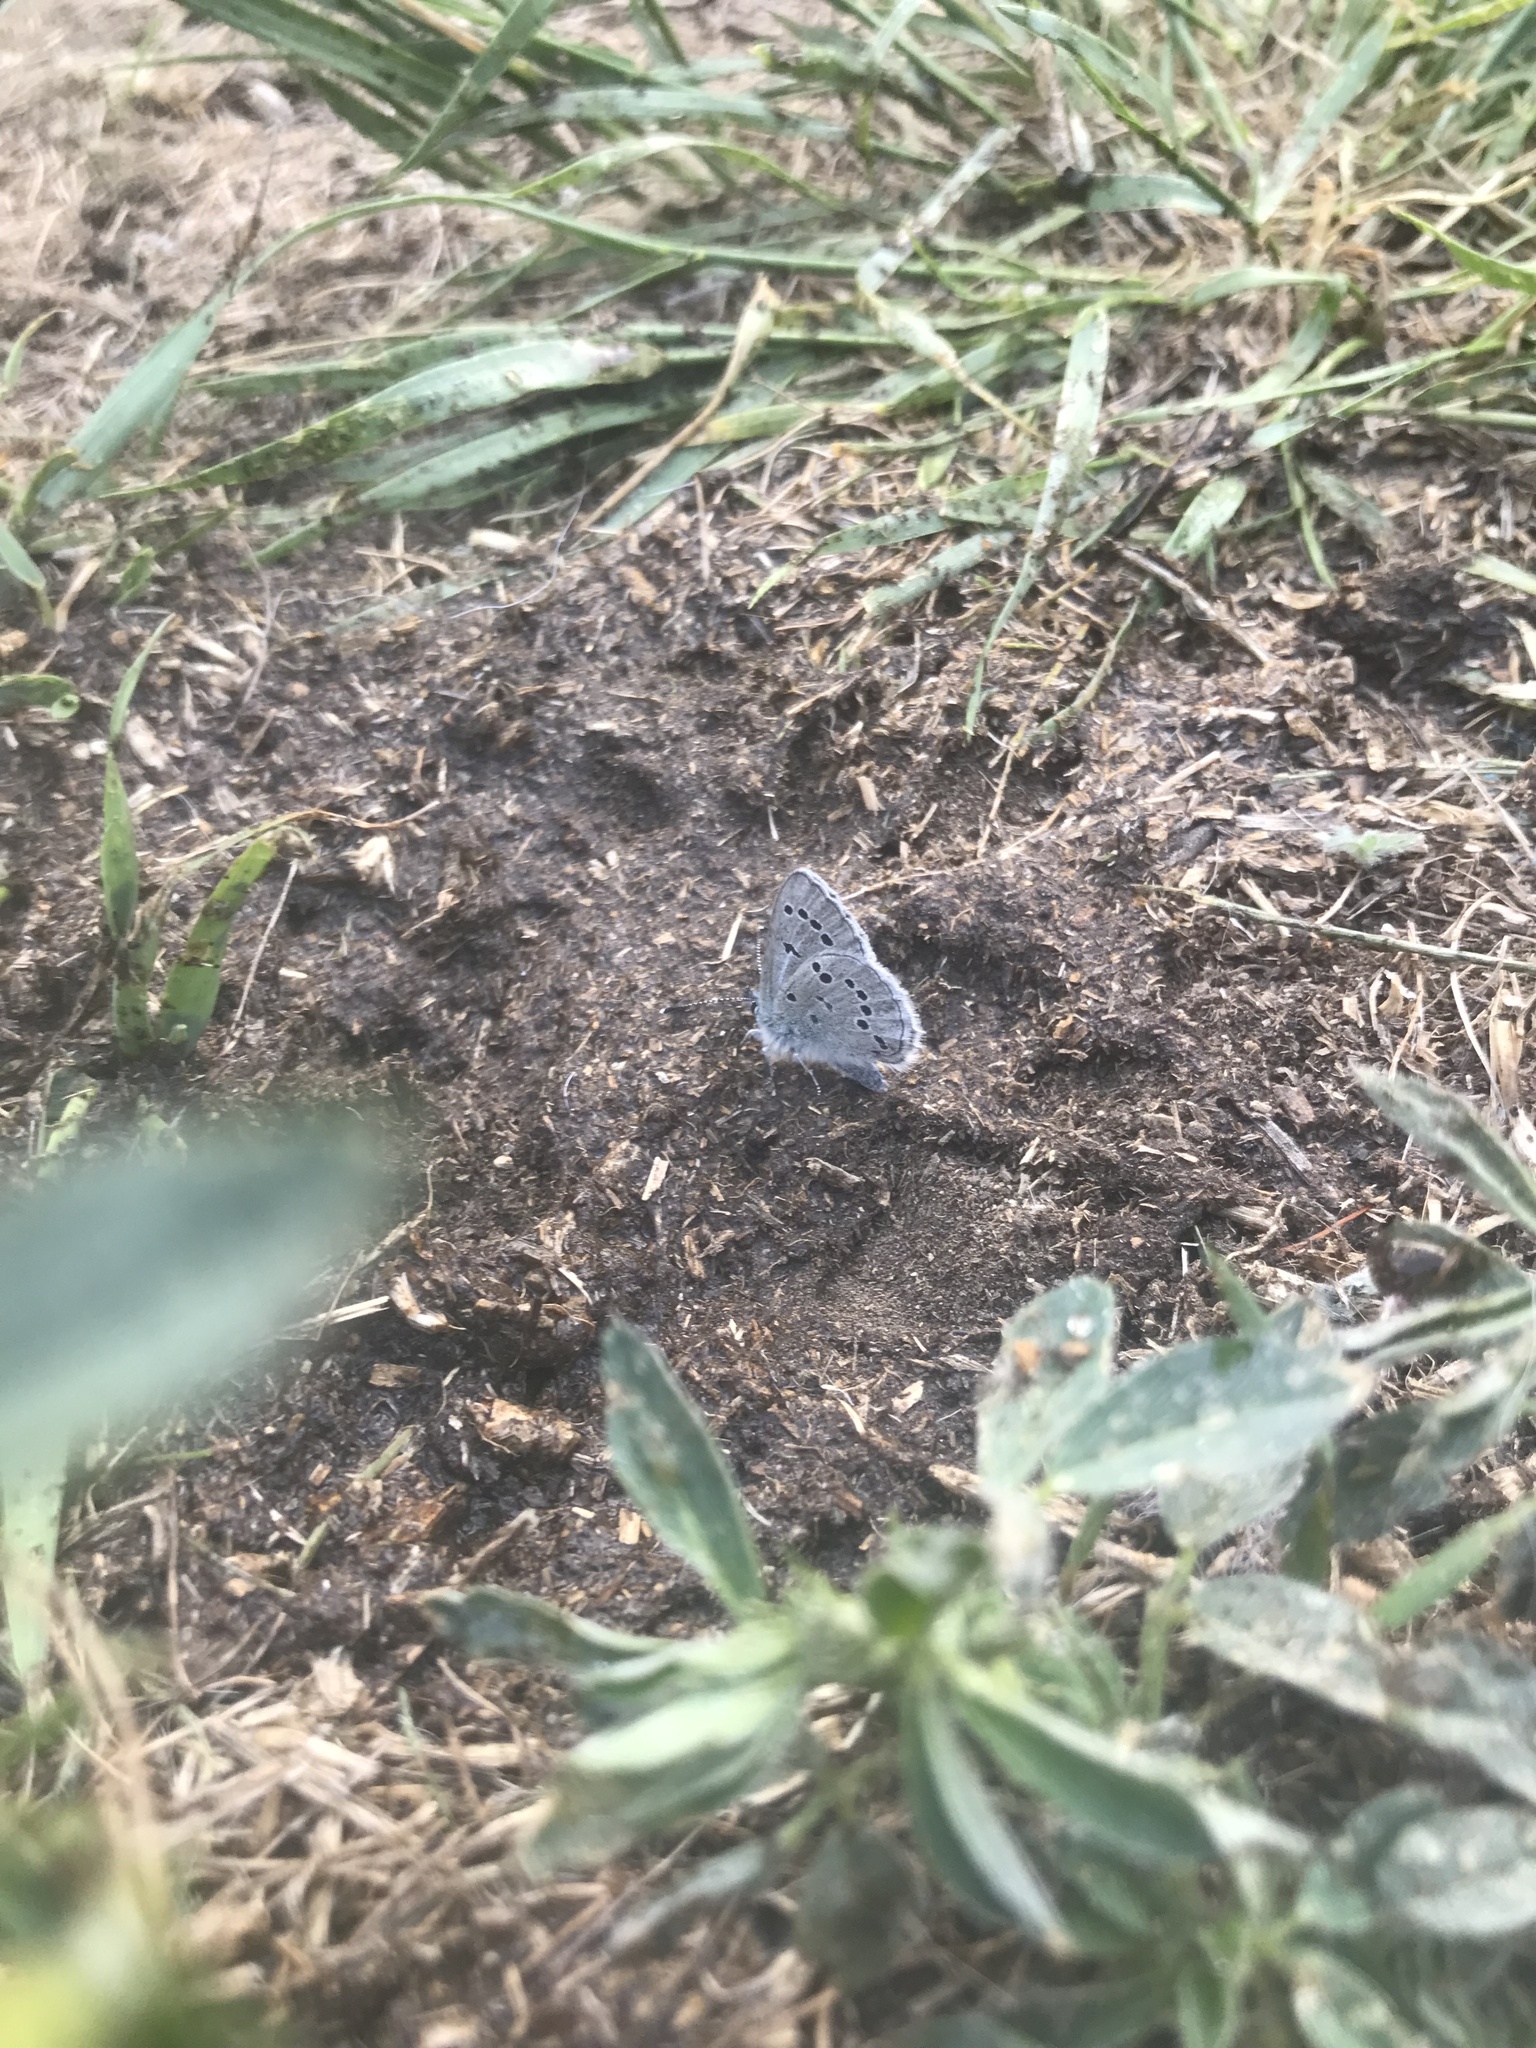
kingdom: Animalia
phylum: Arthropoda
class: Insecta
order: Lepidoptera
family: Lycaenidae
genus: Glaucopsyche
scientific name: Glaucopsyche lygdamus
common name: Silvery blue
